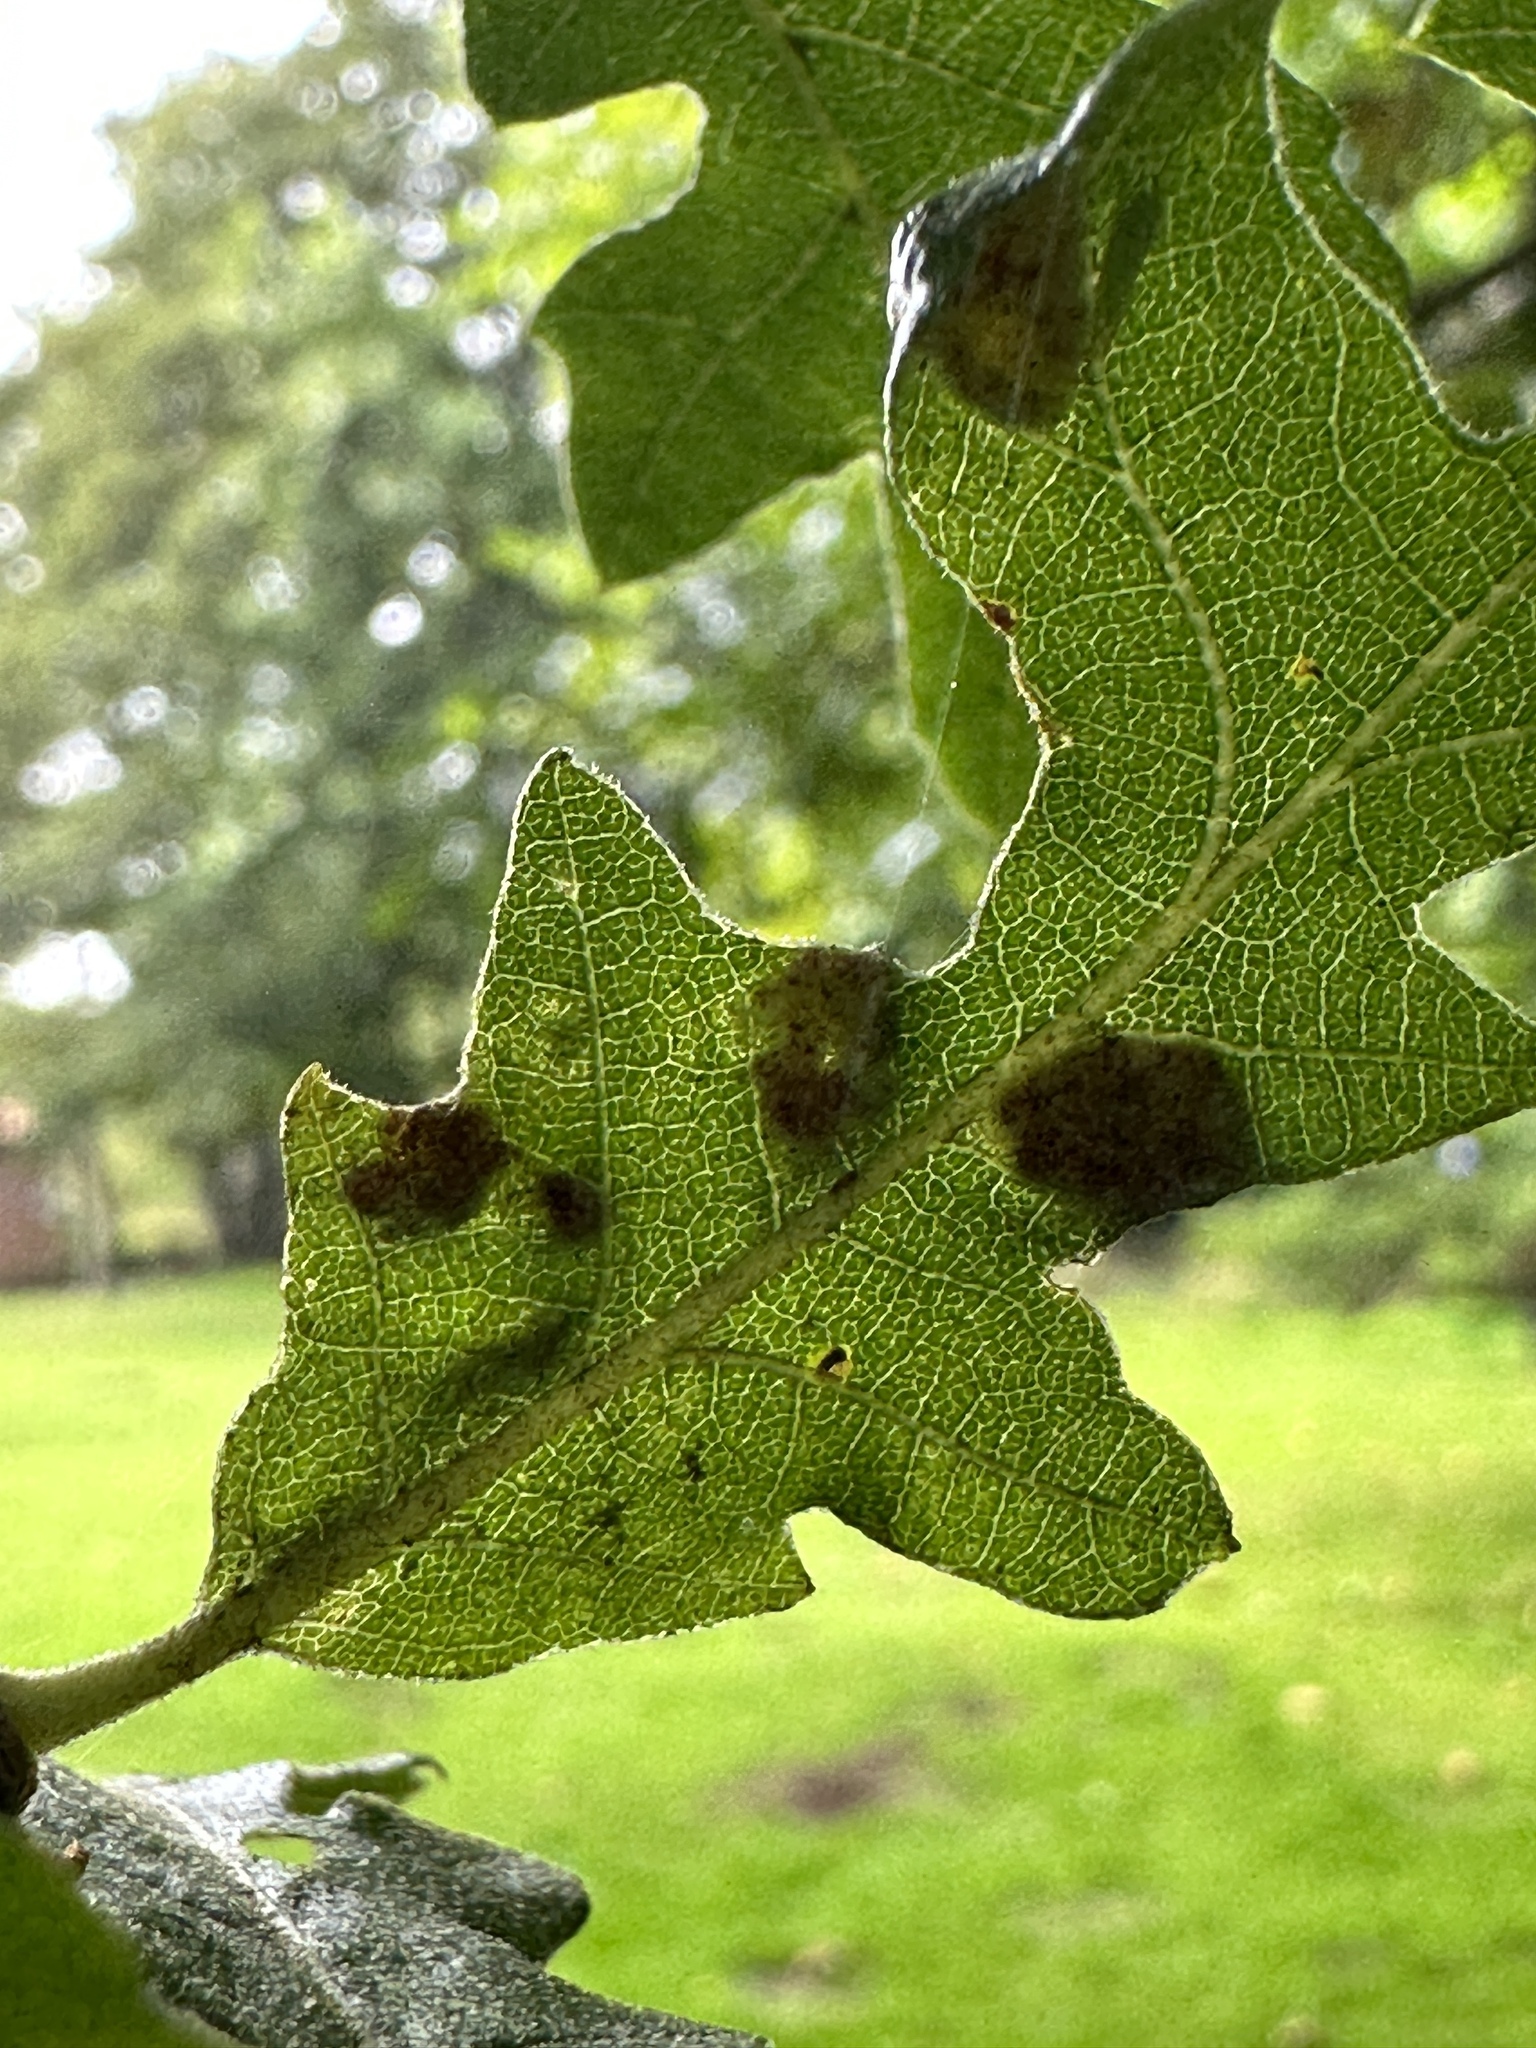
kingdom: Animalia
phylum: Arthropoda
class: Arachnida
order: Trombidiformes
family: Eriophyidae
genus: Aceria
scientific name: Aceria cerrea
